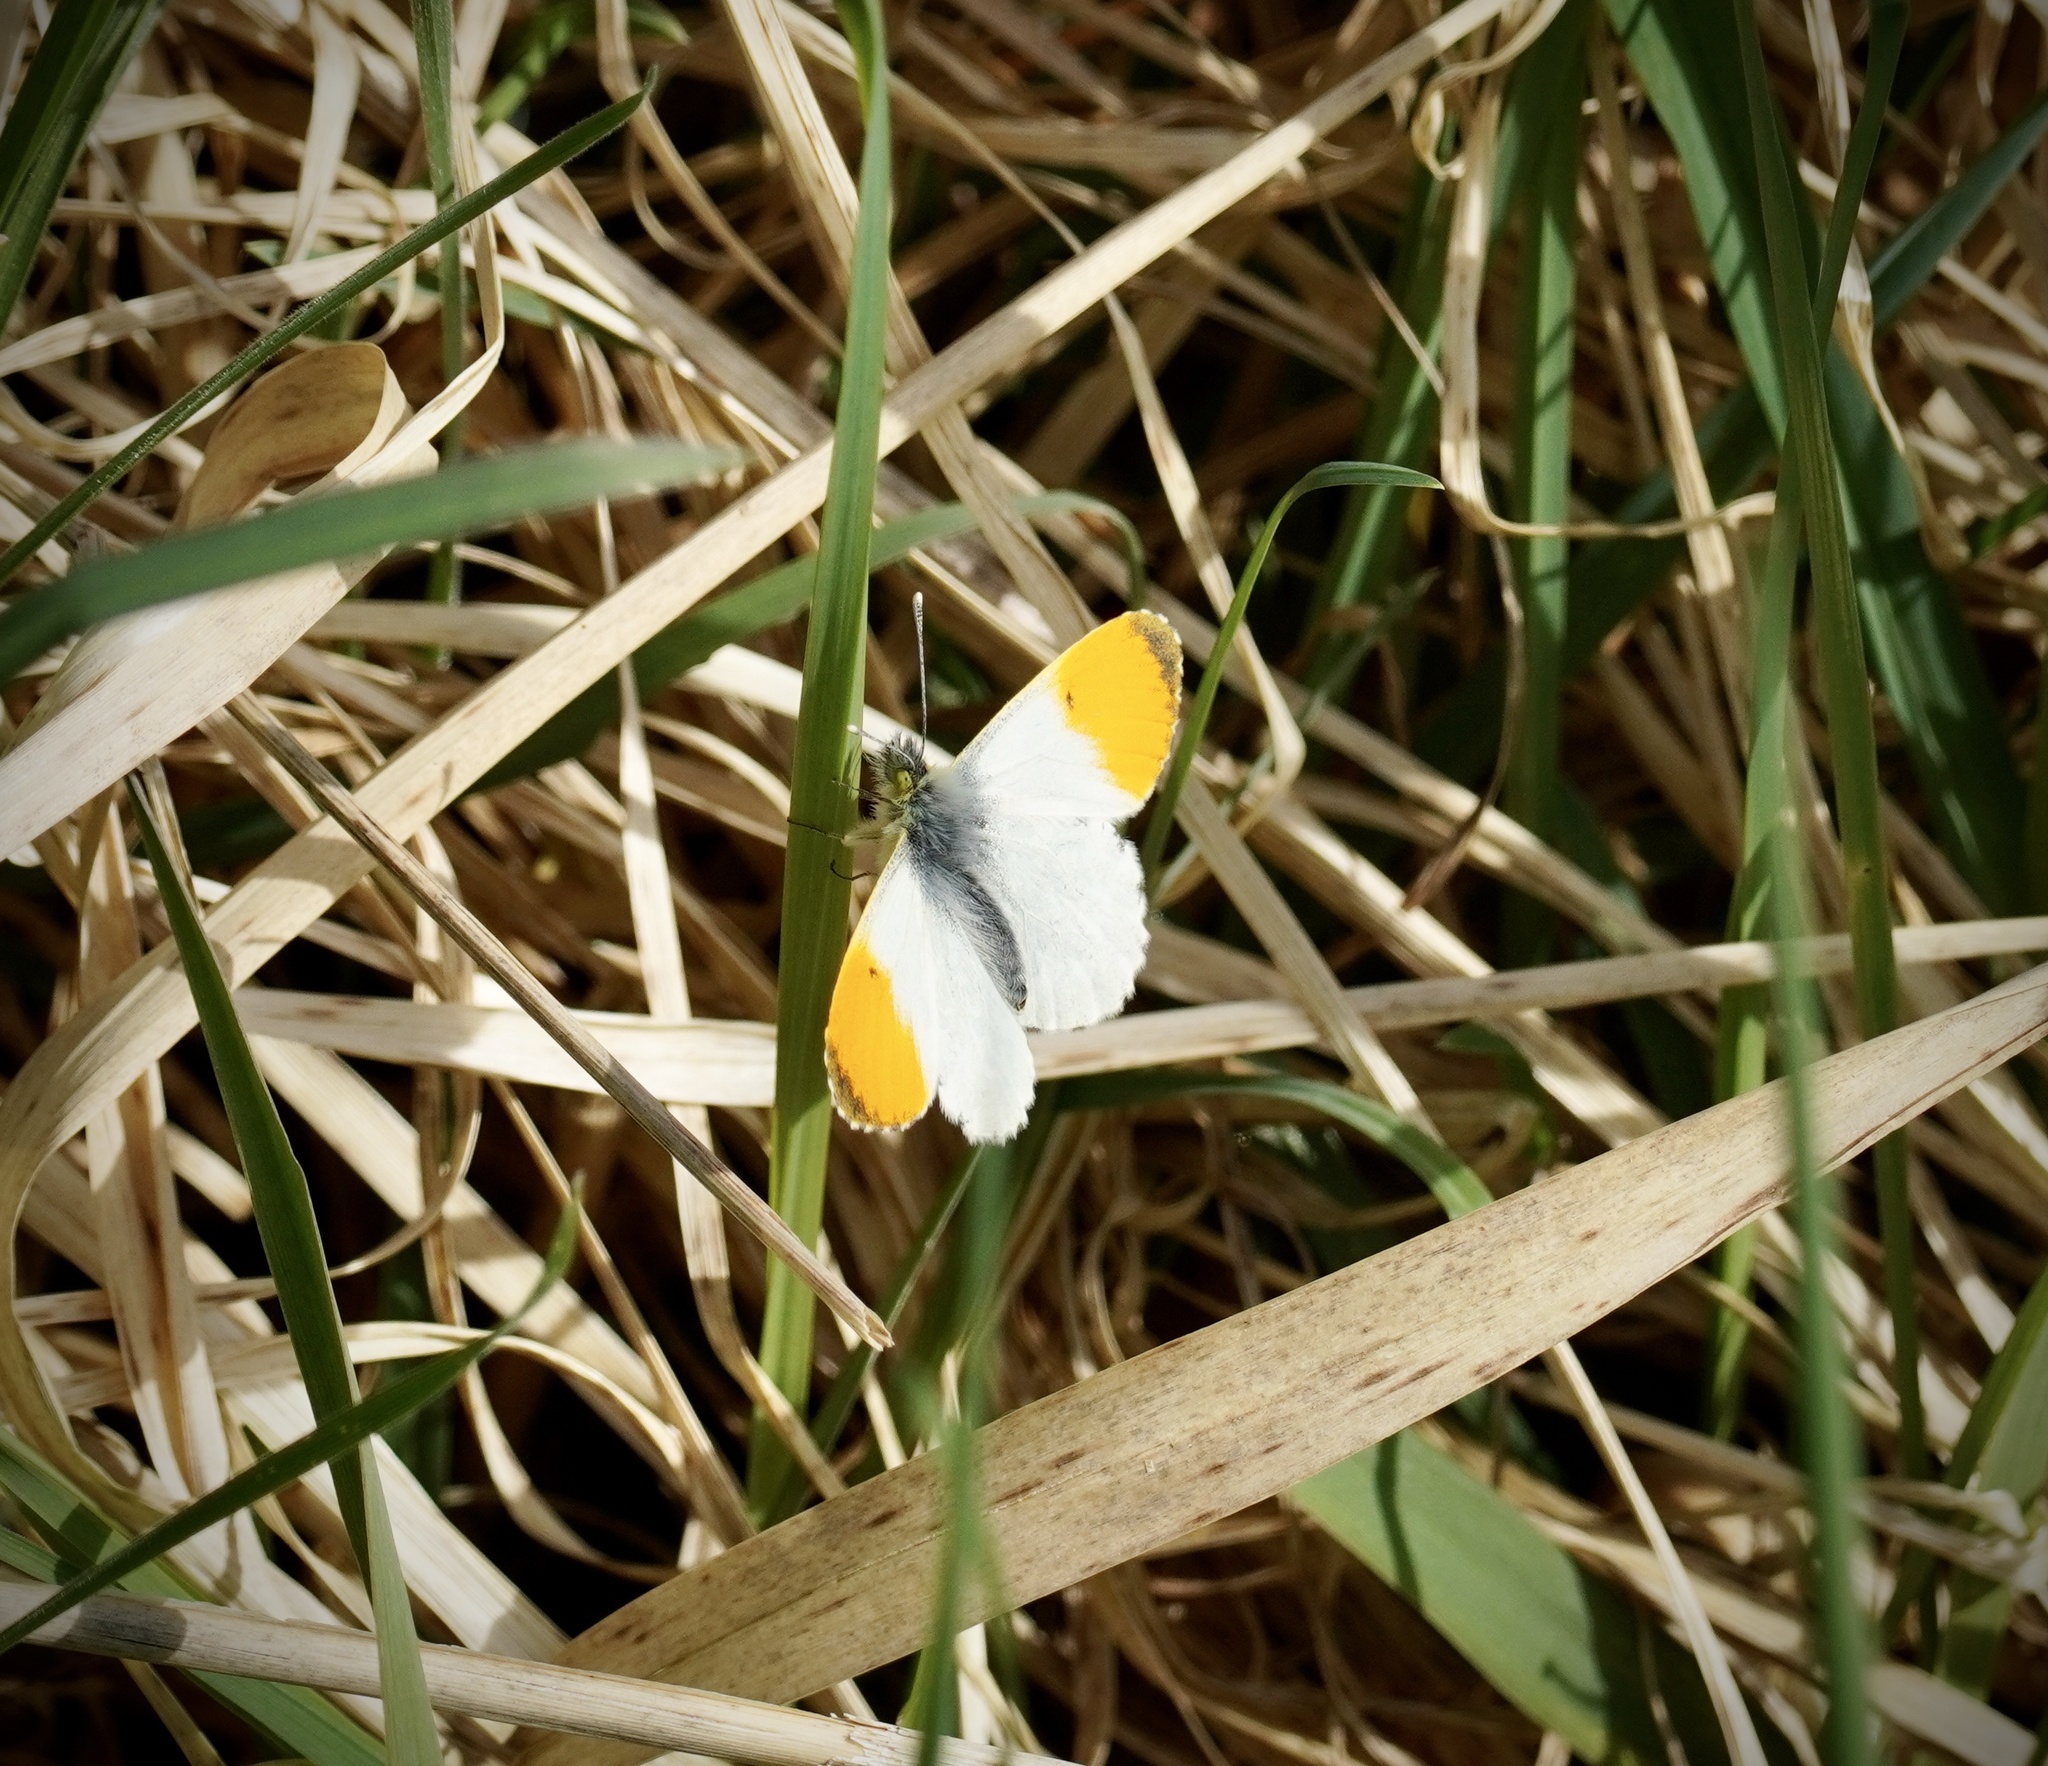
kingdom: Animalia
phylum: Arthropoda
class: Insecta
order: Lepidoptera
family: Pieridae
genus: Anthocharis
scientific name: Anthocharis cardamines
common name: Orange-tip
